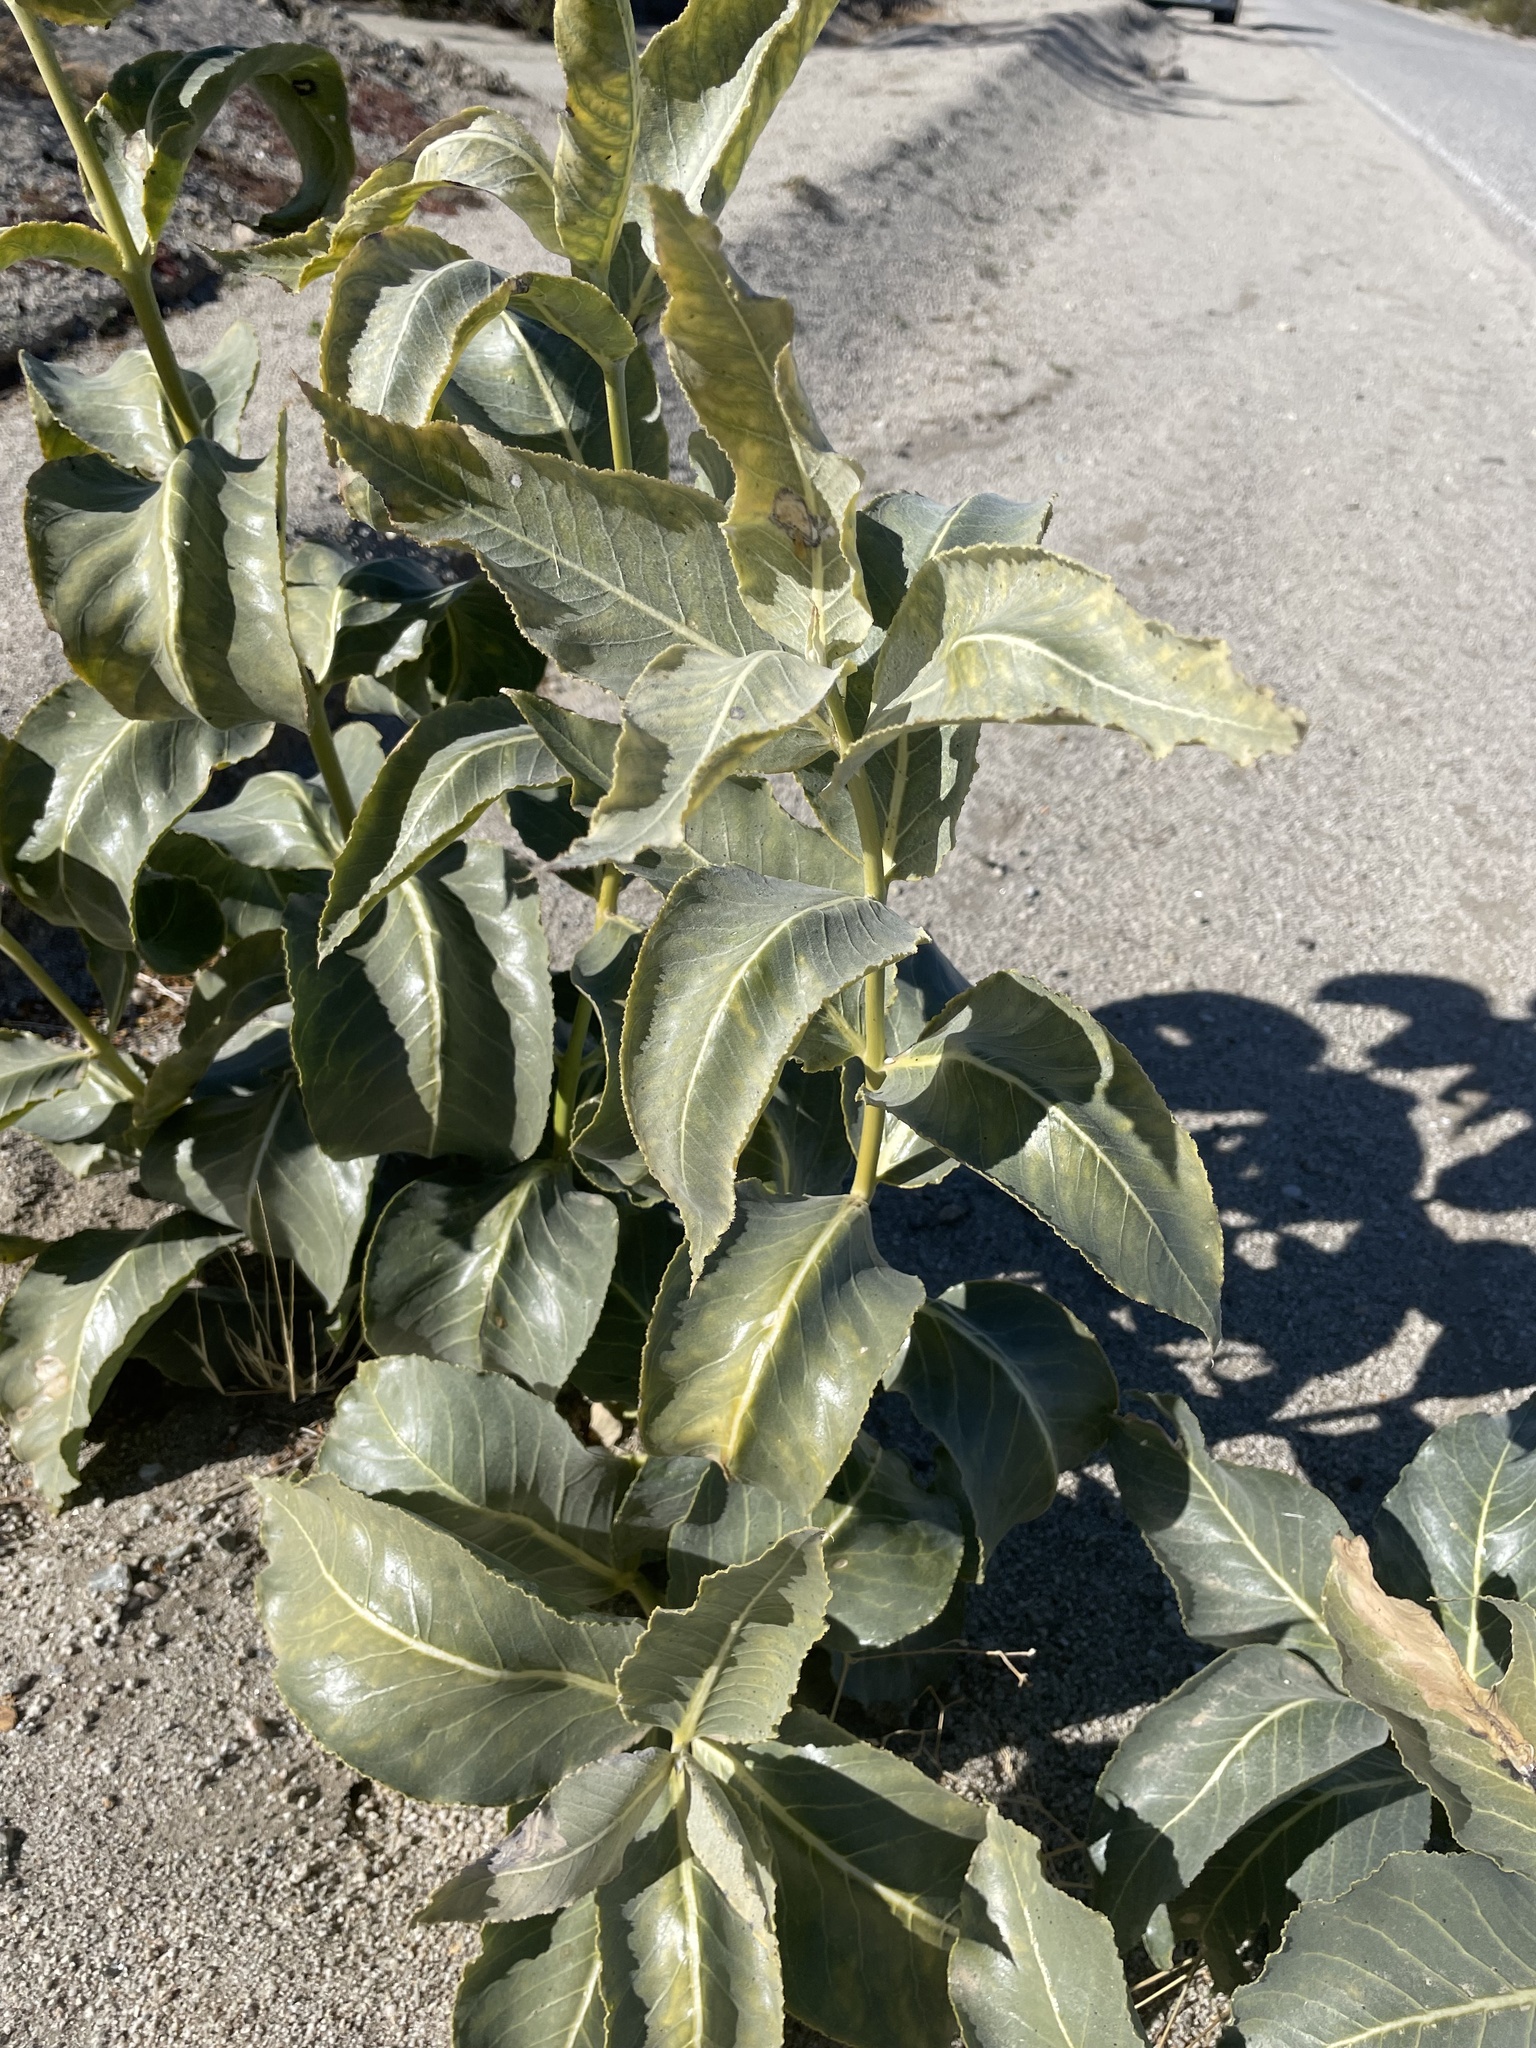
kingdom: Plantae
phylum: Tracheophyta
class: Magnoliopsida
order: Gentianales
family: Apocynaceae
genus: Asclepias
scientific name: Asclepias erosa
